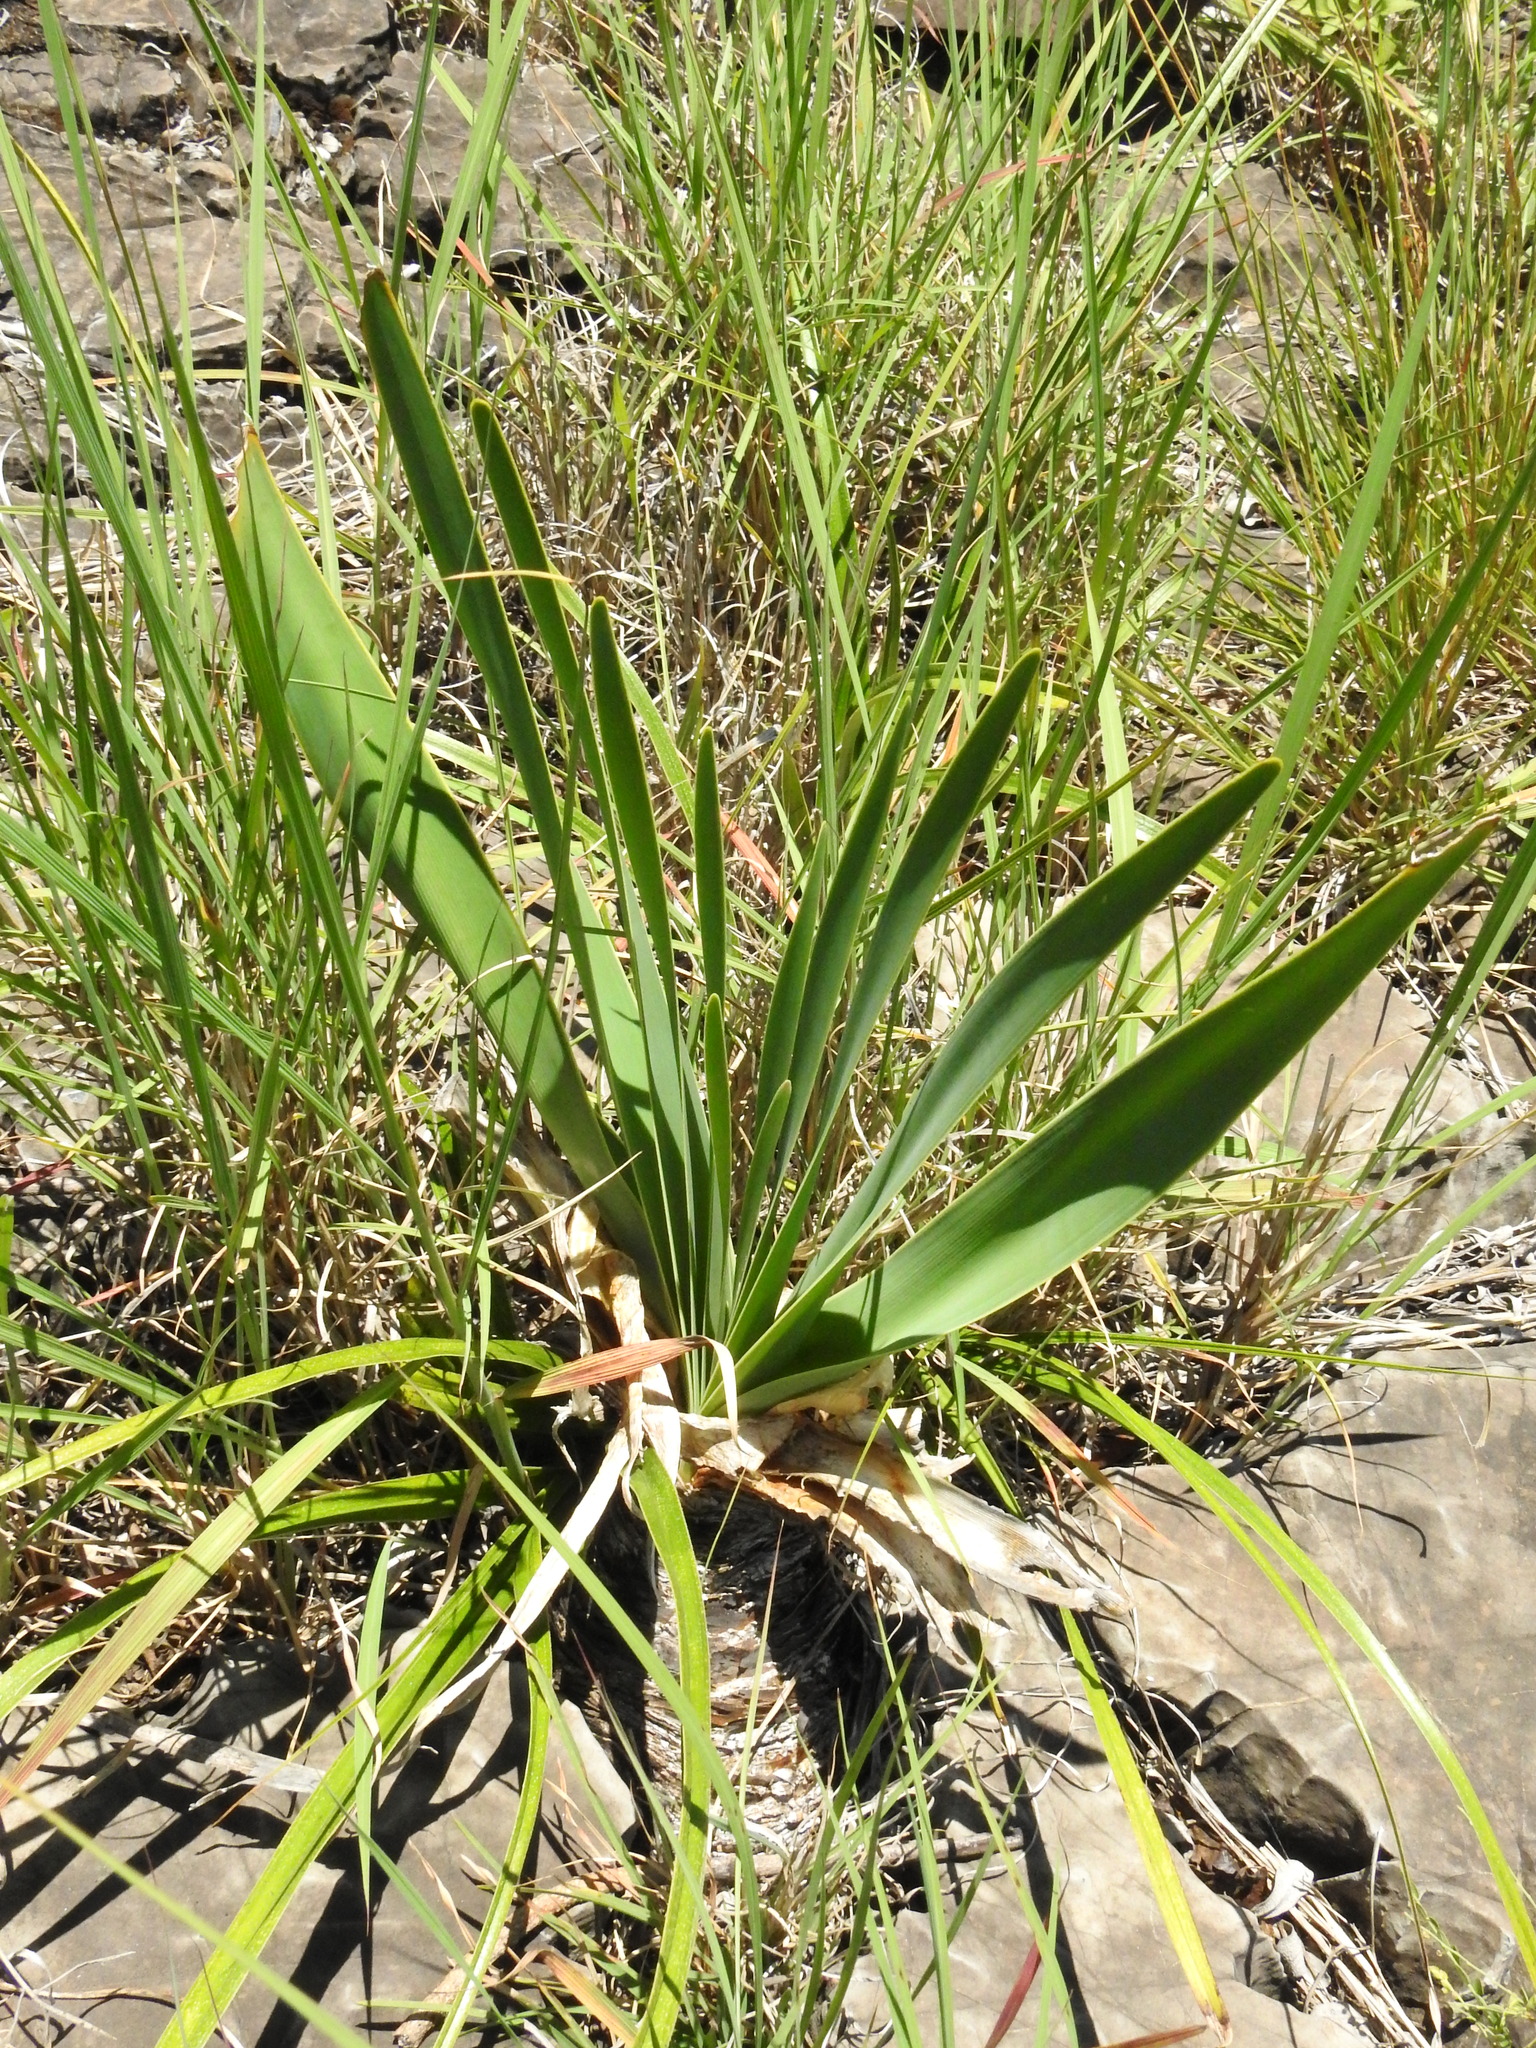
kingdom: Plantae
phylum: Tracheophyta
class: Liliopsida
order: Asparagales
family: Amaryllidaceae
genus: Boophone
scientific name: Boophone disticha
